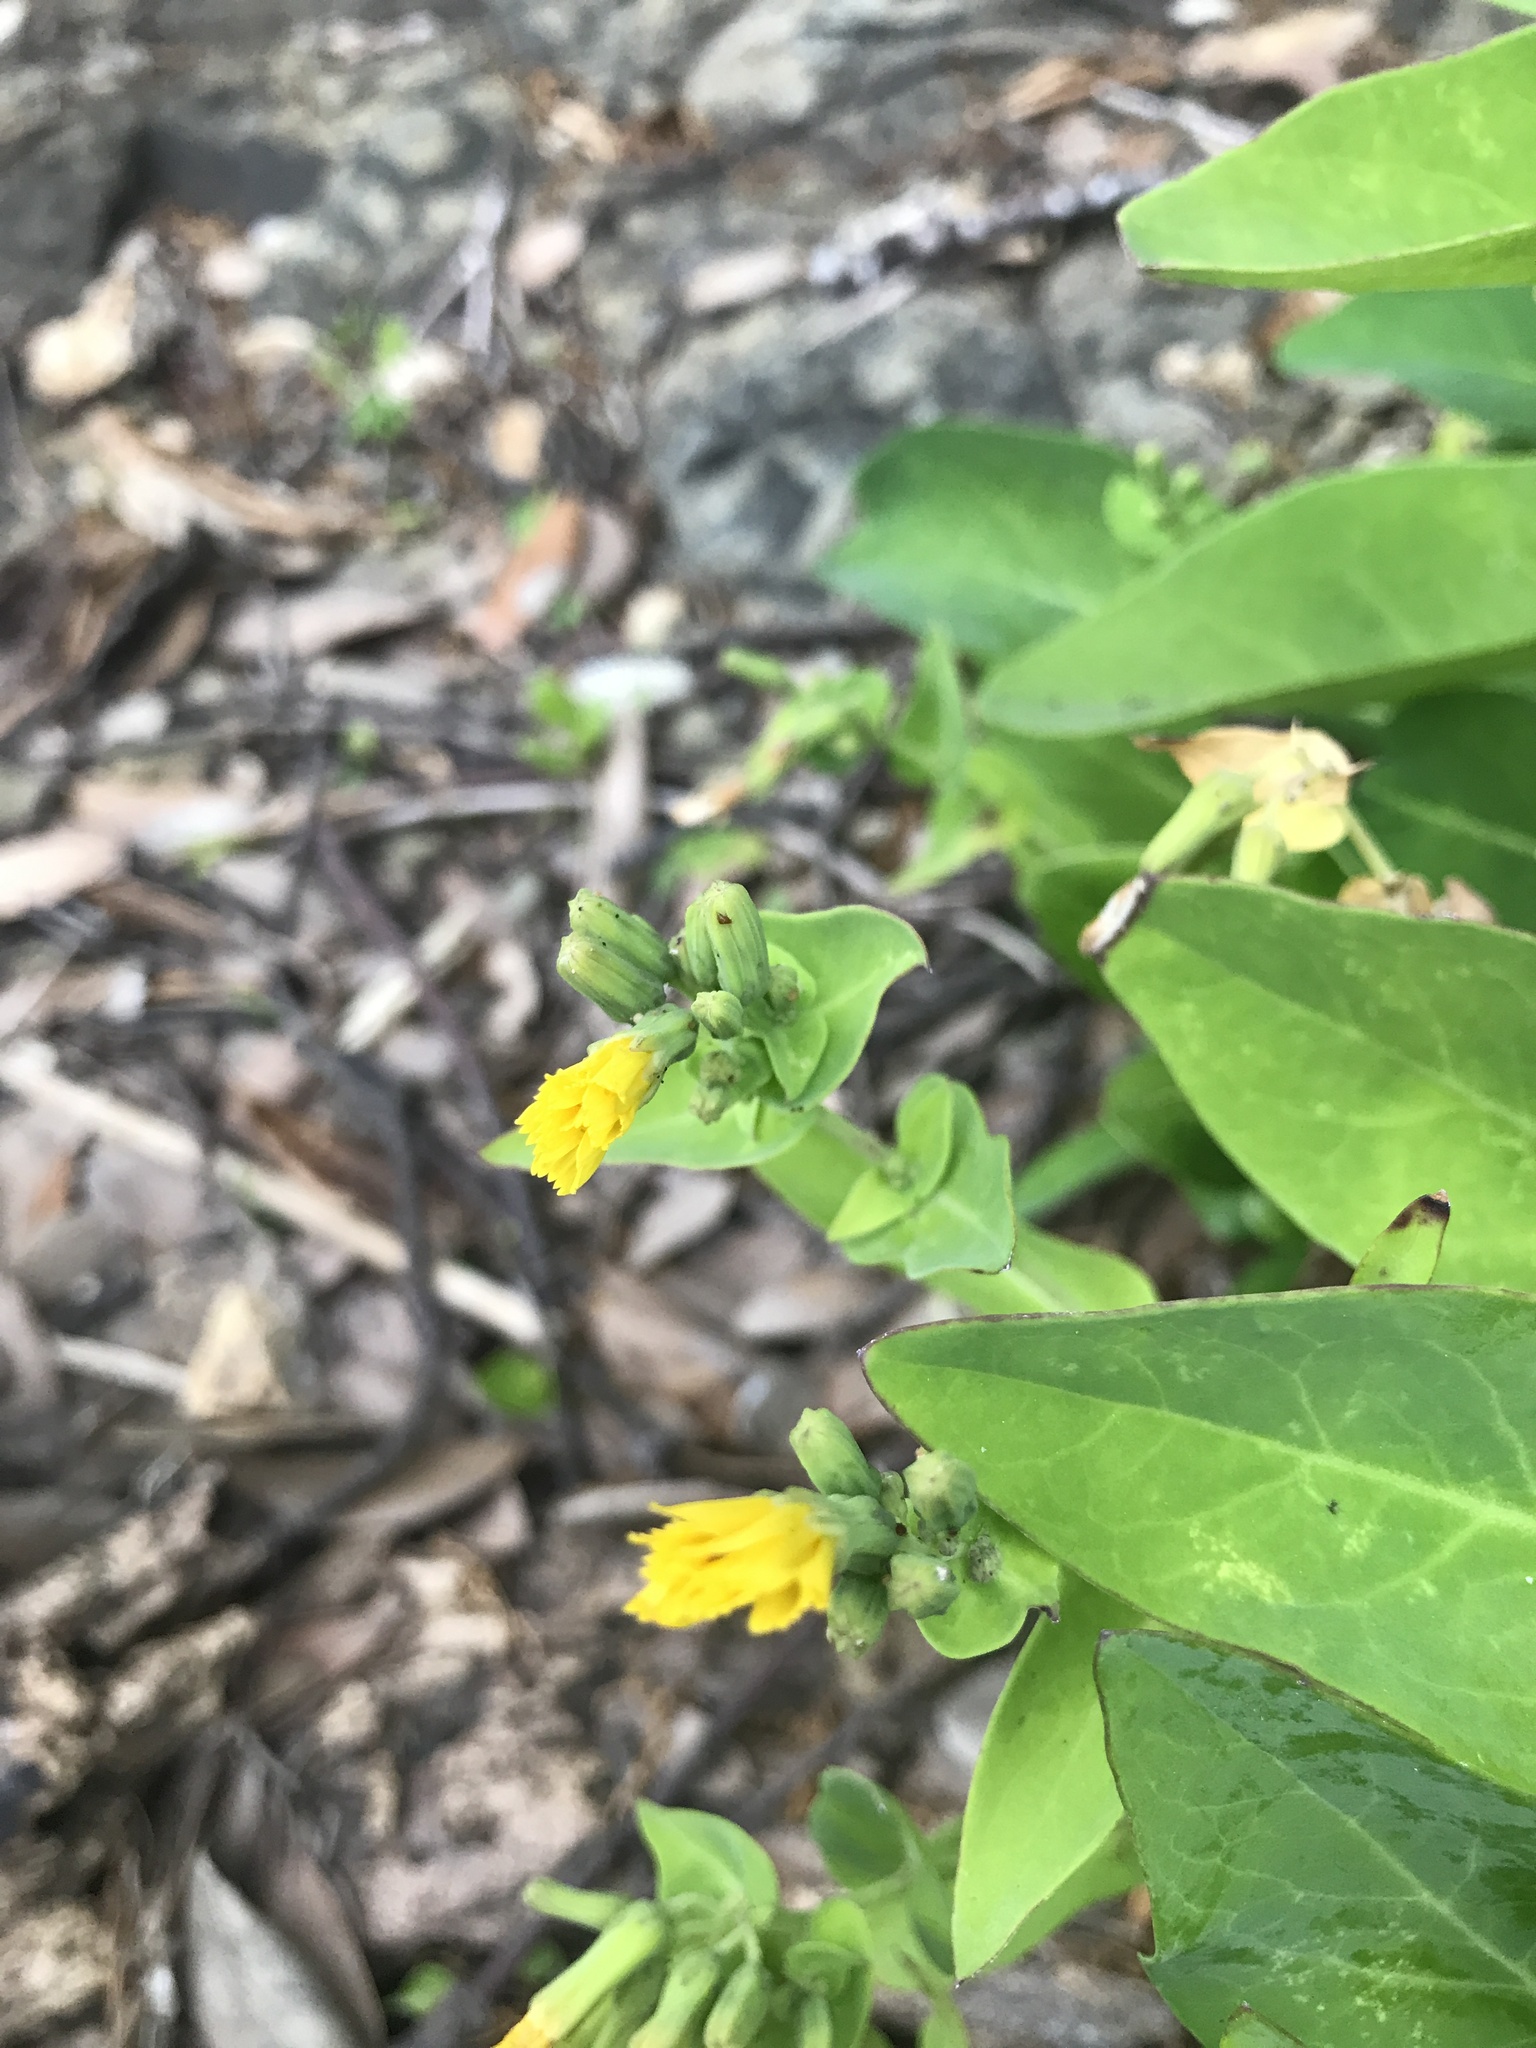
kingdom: Plantae
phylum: Tracheophyta
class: Magnoliopsida
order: Asterales
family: Asteraceae
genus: Crepidiastrum
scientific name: Crepidiastrum lanceolatum
